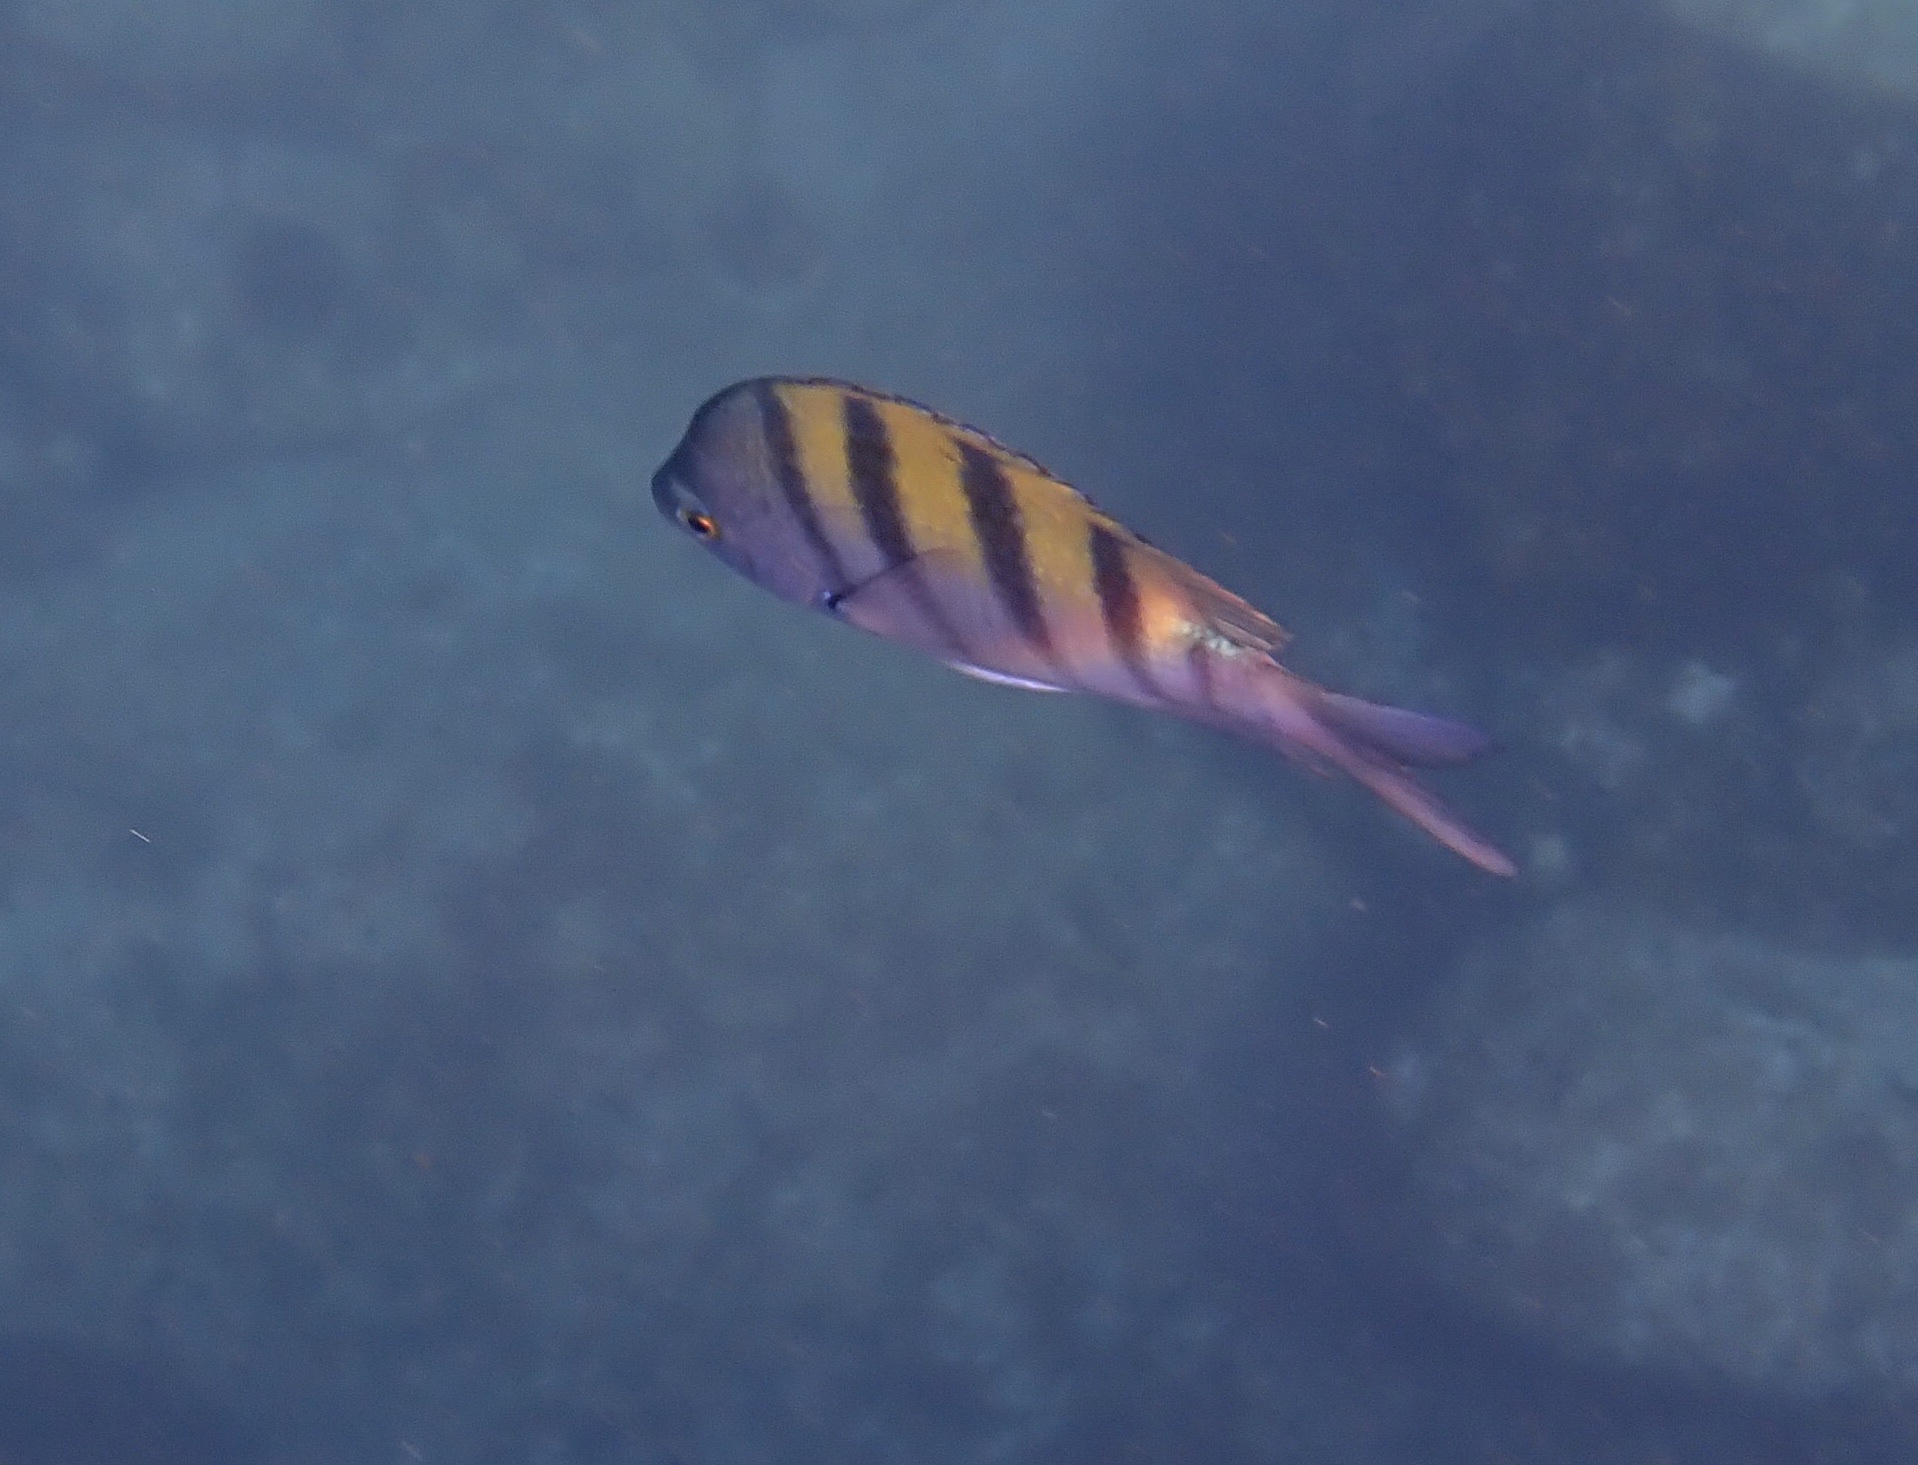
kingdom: Animalia
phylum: Chordata
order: Perciformes
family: Pomacentridae
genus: Abudefduf
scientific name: Abudefduf troschelii
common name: Panamic sergeant major
